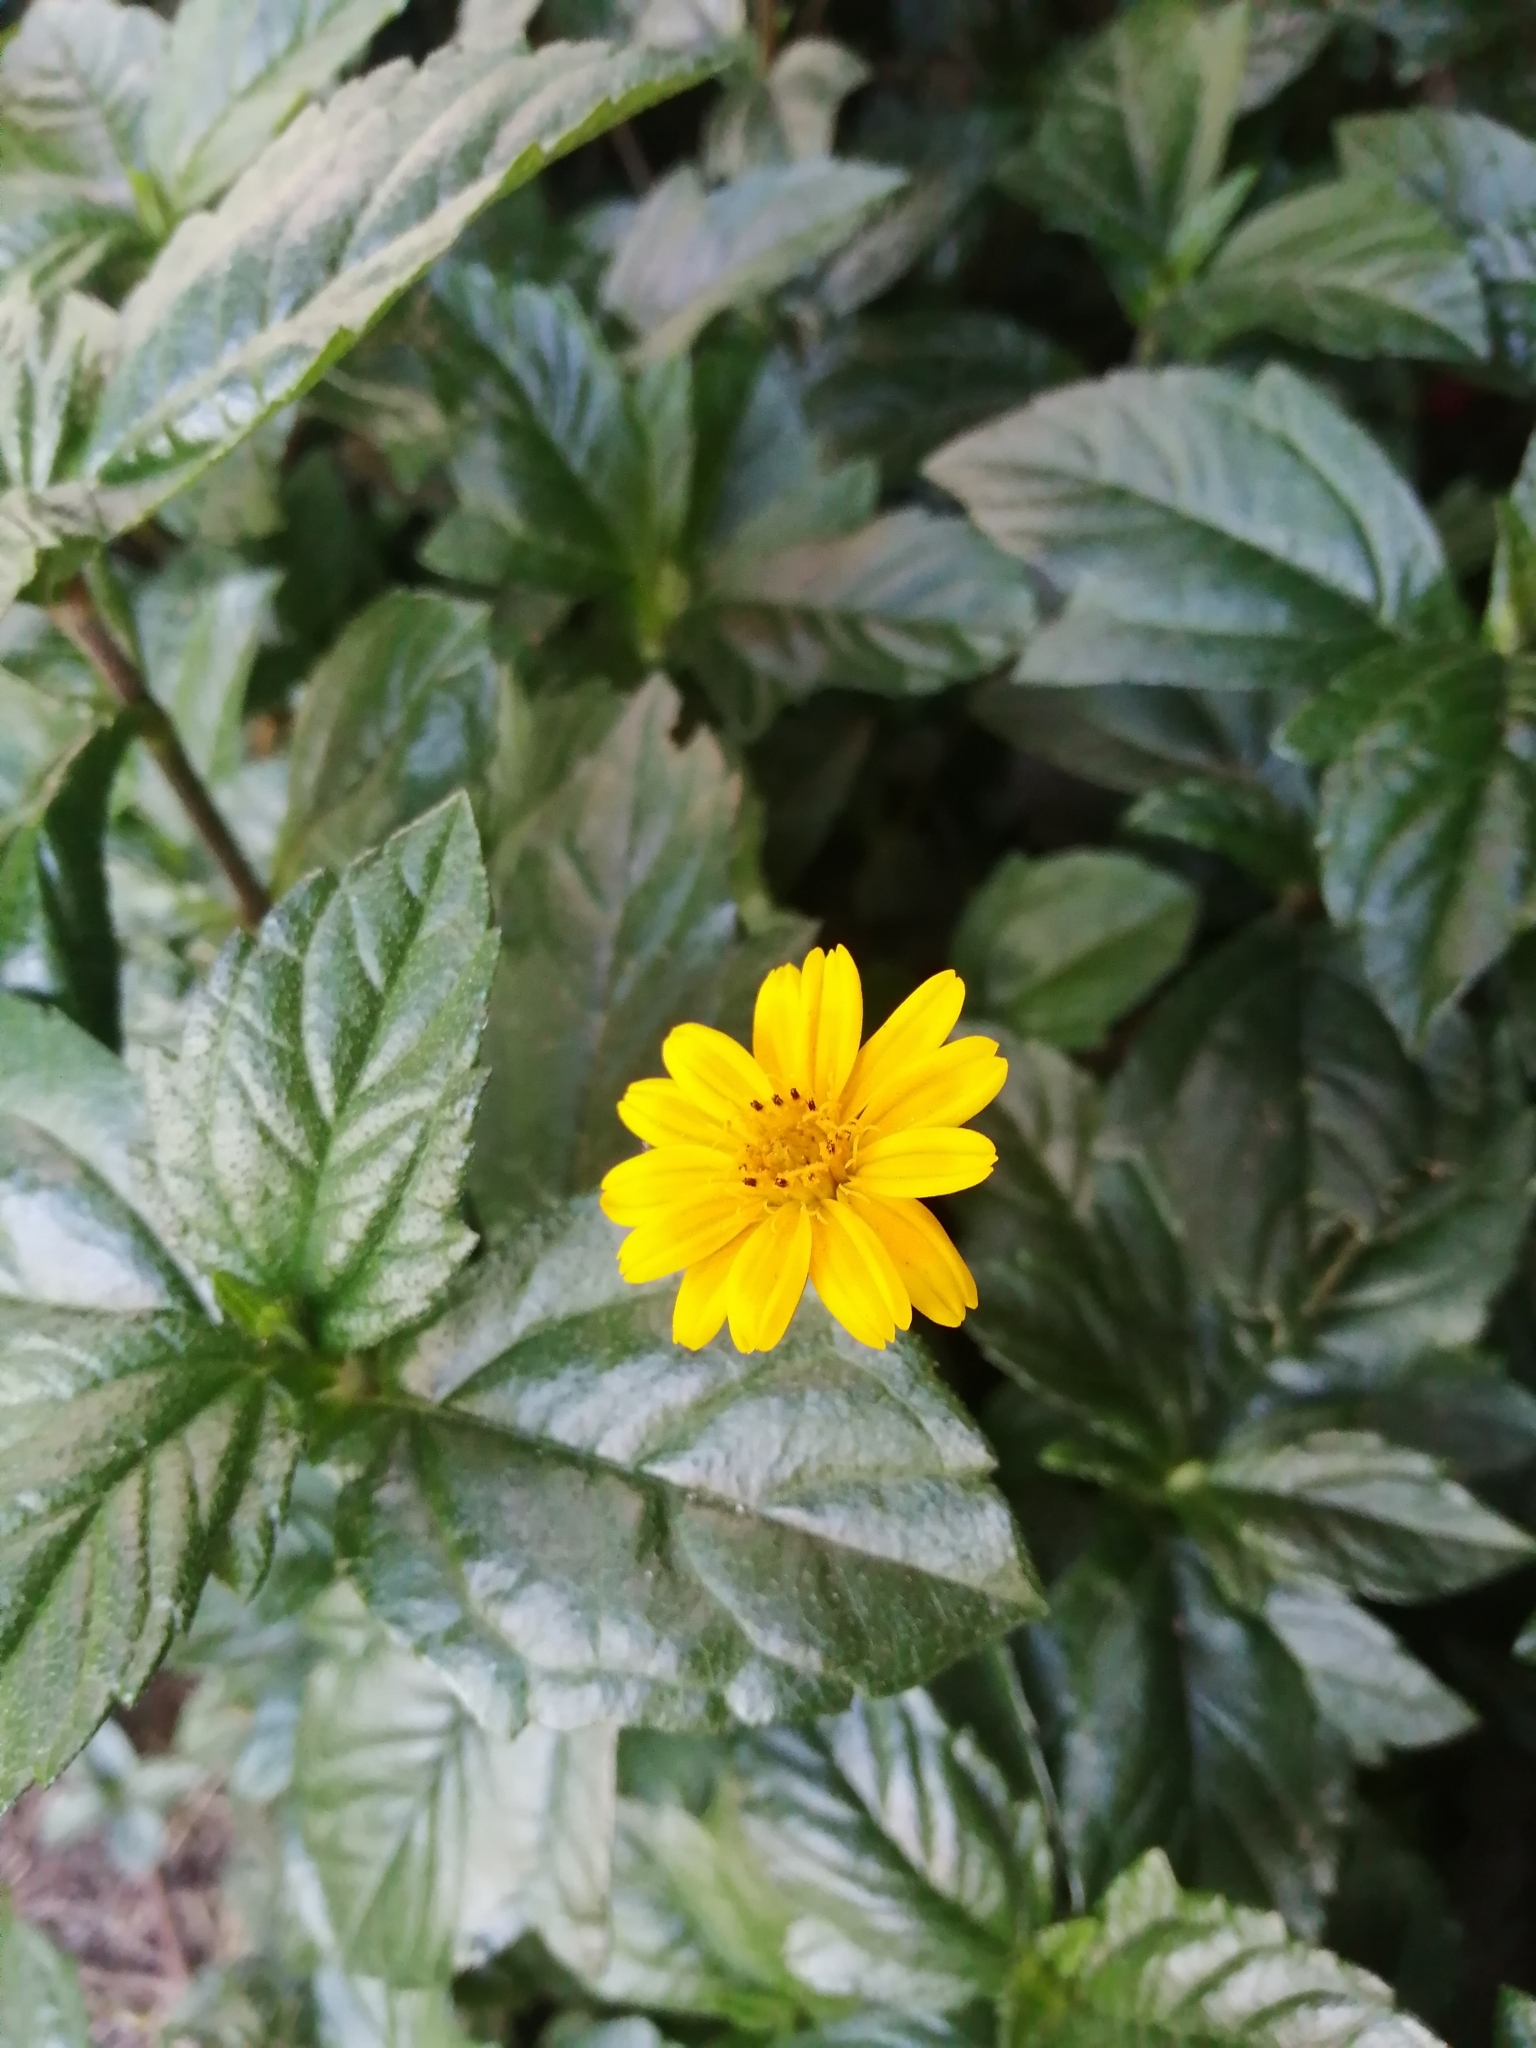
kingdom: Plantae
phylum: Tracheophyta
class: Magnoliopsida
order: Asterales
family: Asteraceae
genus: Sphagneticola
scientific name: Sphagneticola trilobata
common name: Bay biscayne creeping-oxeye
